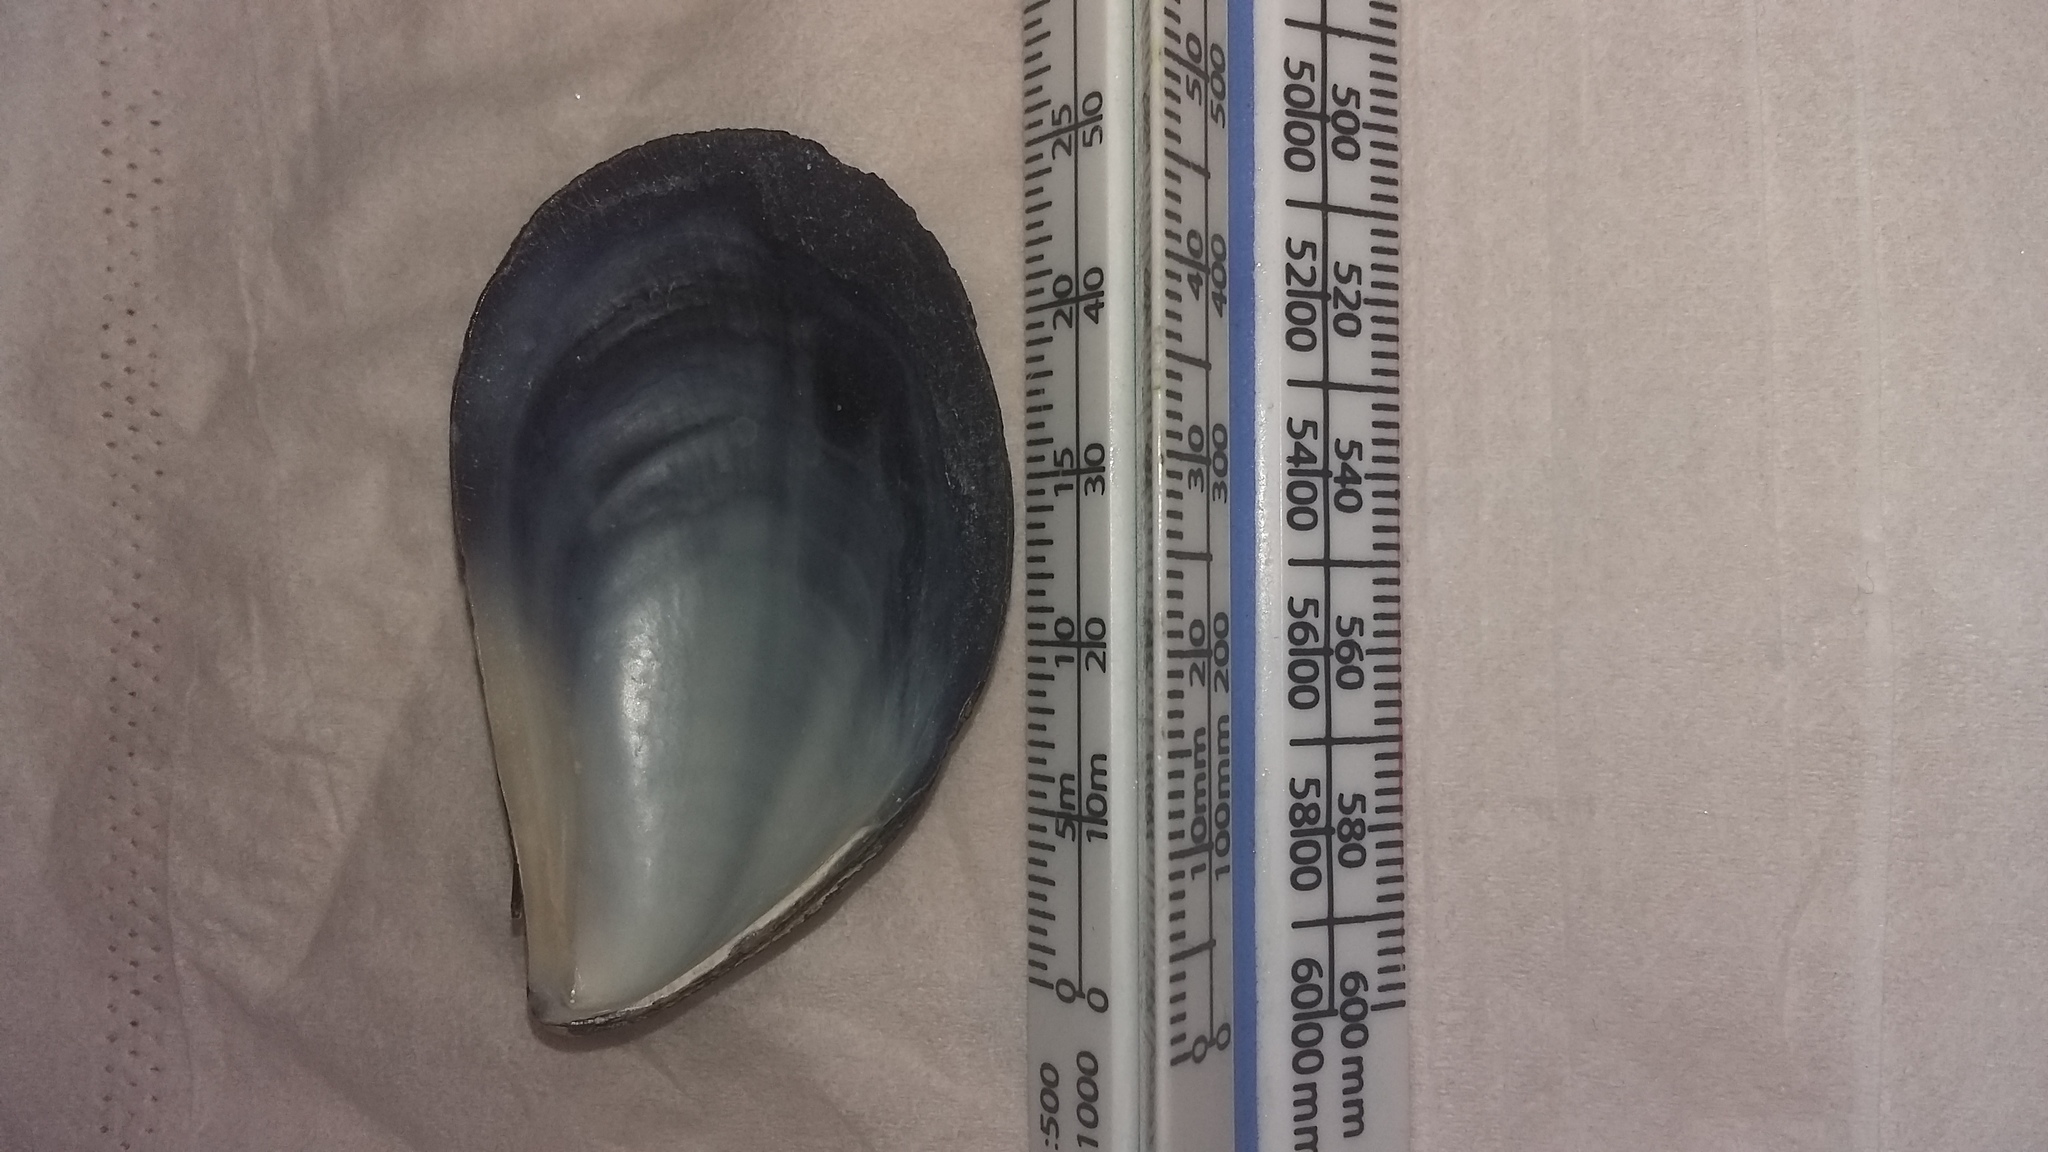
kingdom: Animalia
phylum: Mollusca
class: Bivalvia
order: Mytilida
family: Mytilidae
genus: Mytilus
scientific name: Mytilus planulatus
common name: Australian mussel
